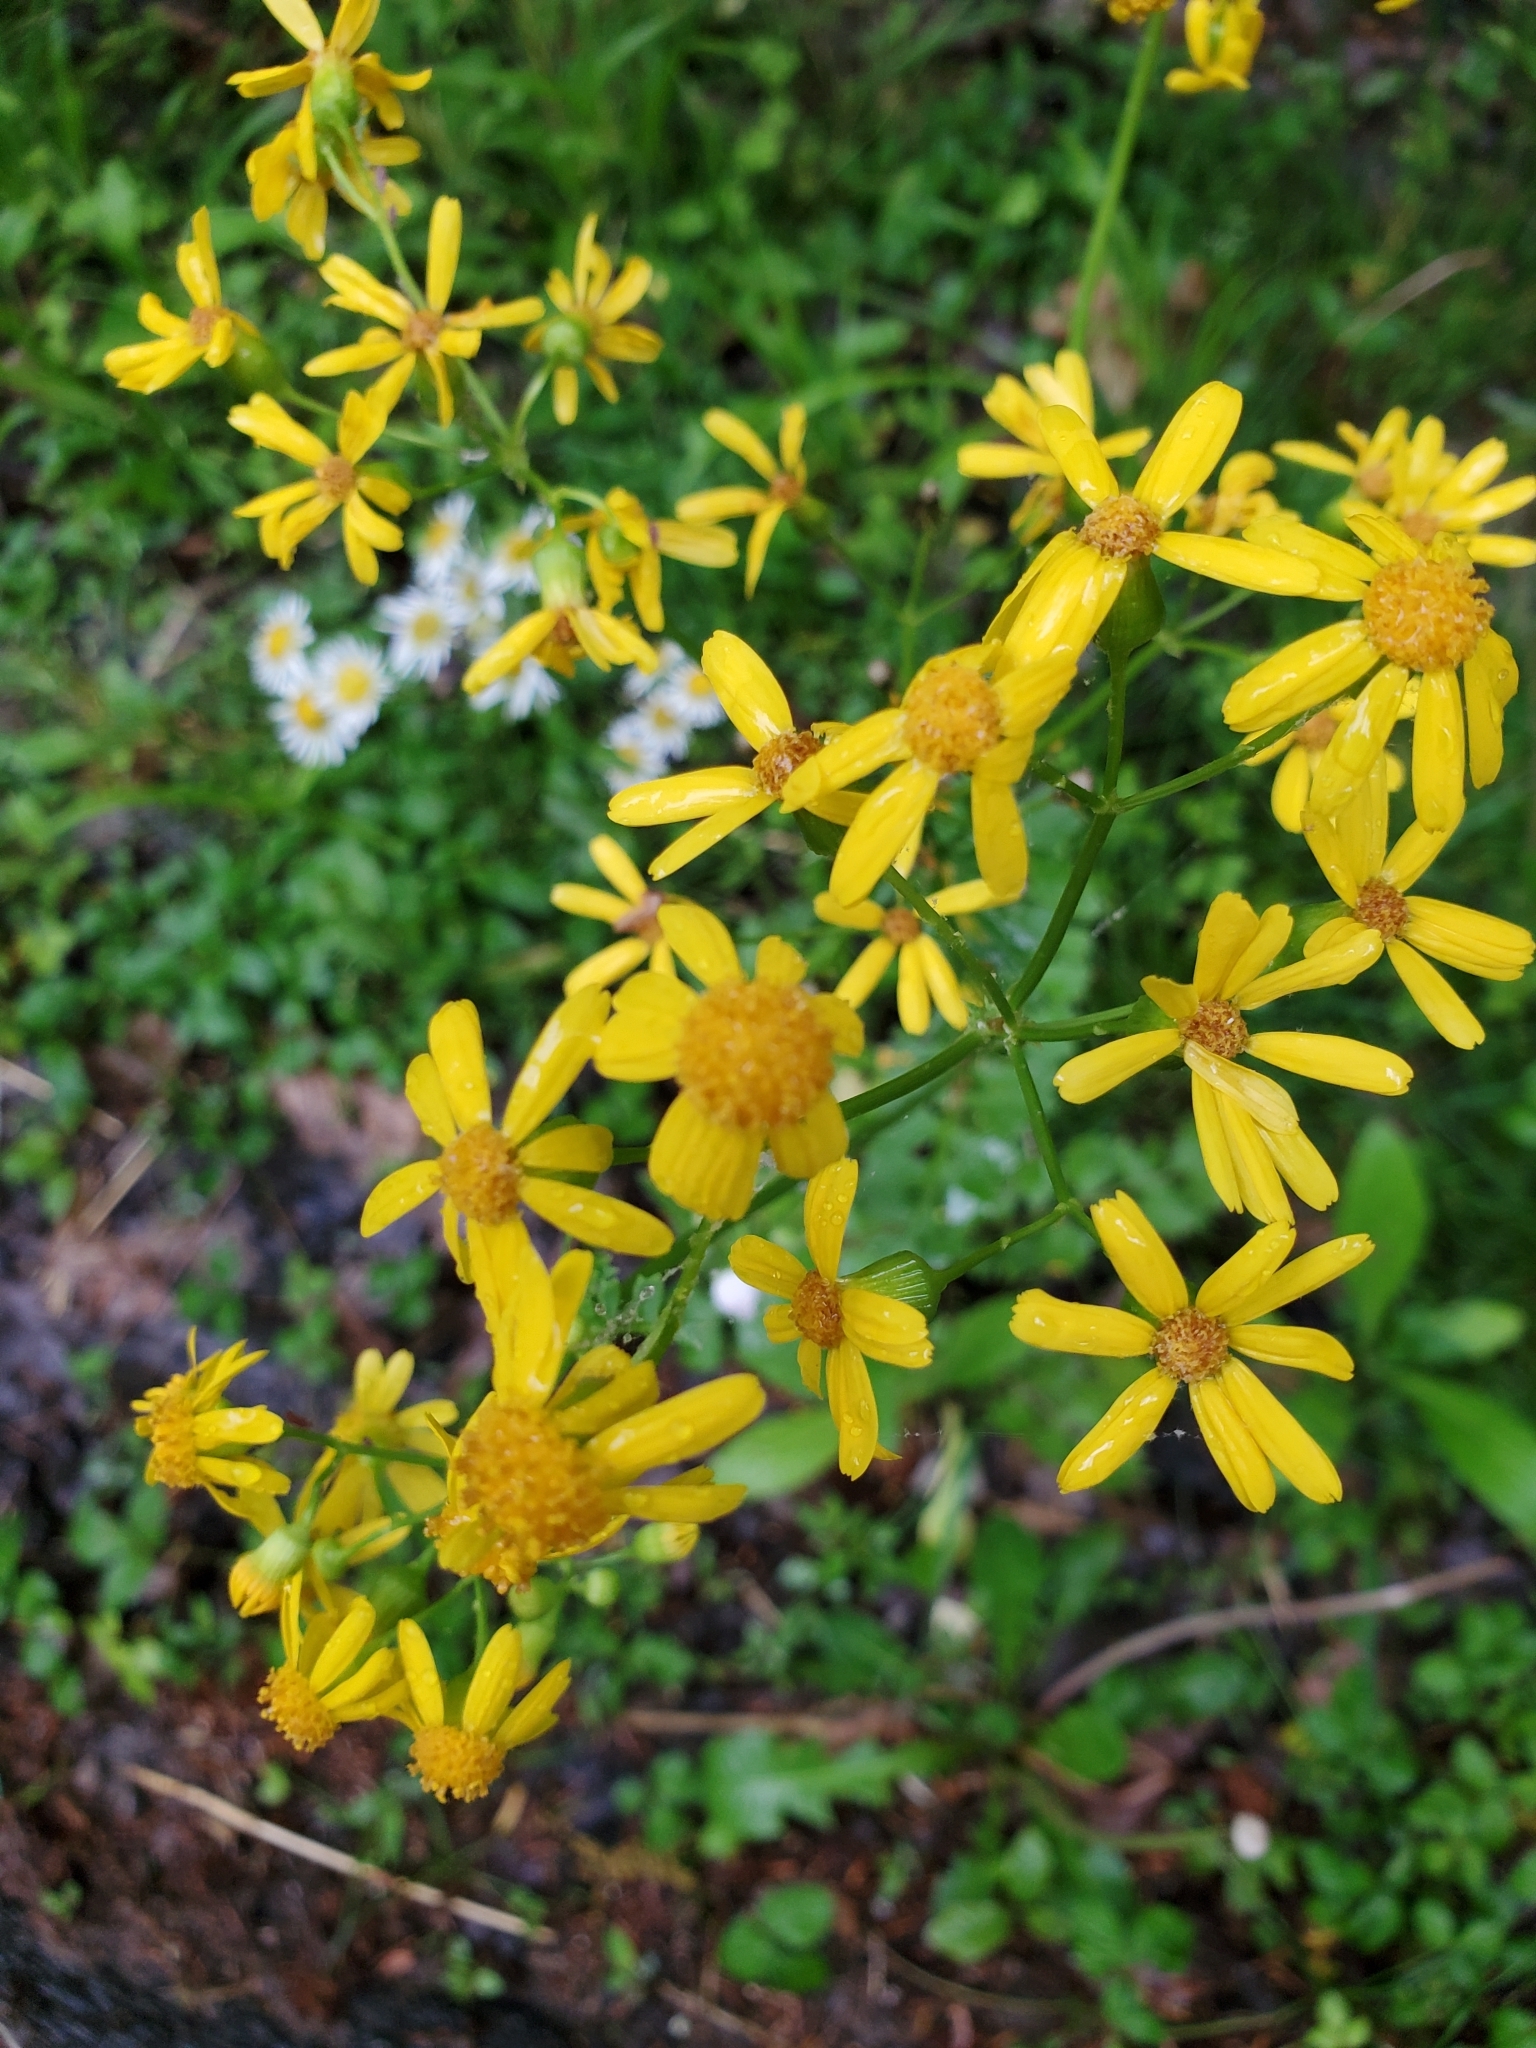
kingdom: Plantae
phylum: Tracheophyta
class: Magnoliopsida
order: Asterales
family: Asteraceae
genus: Packera
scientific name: Packera glabella
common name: Butterweed
